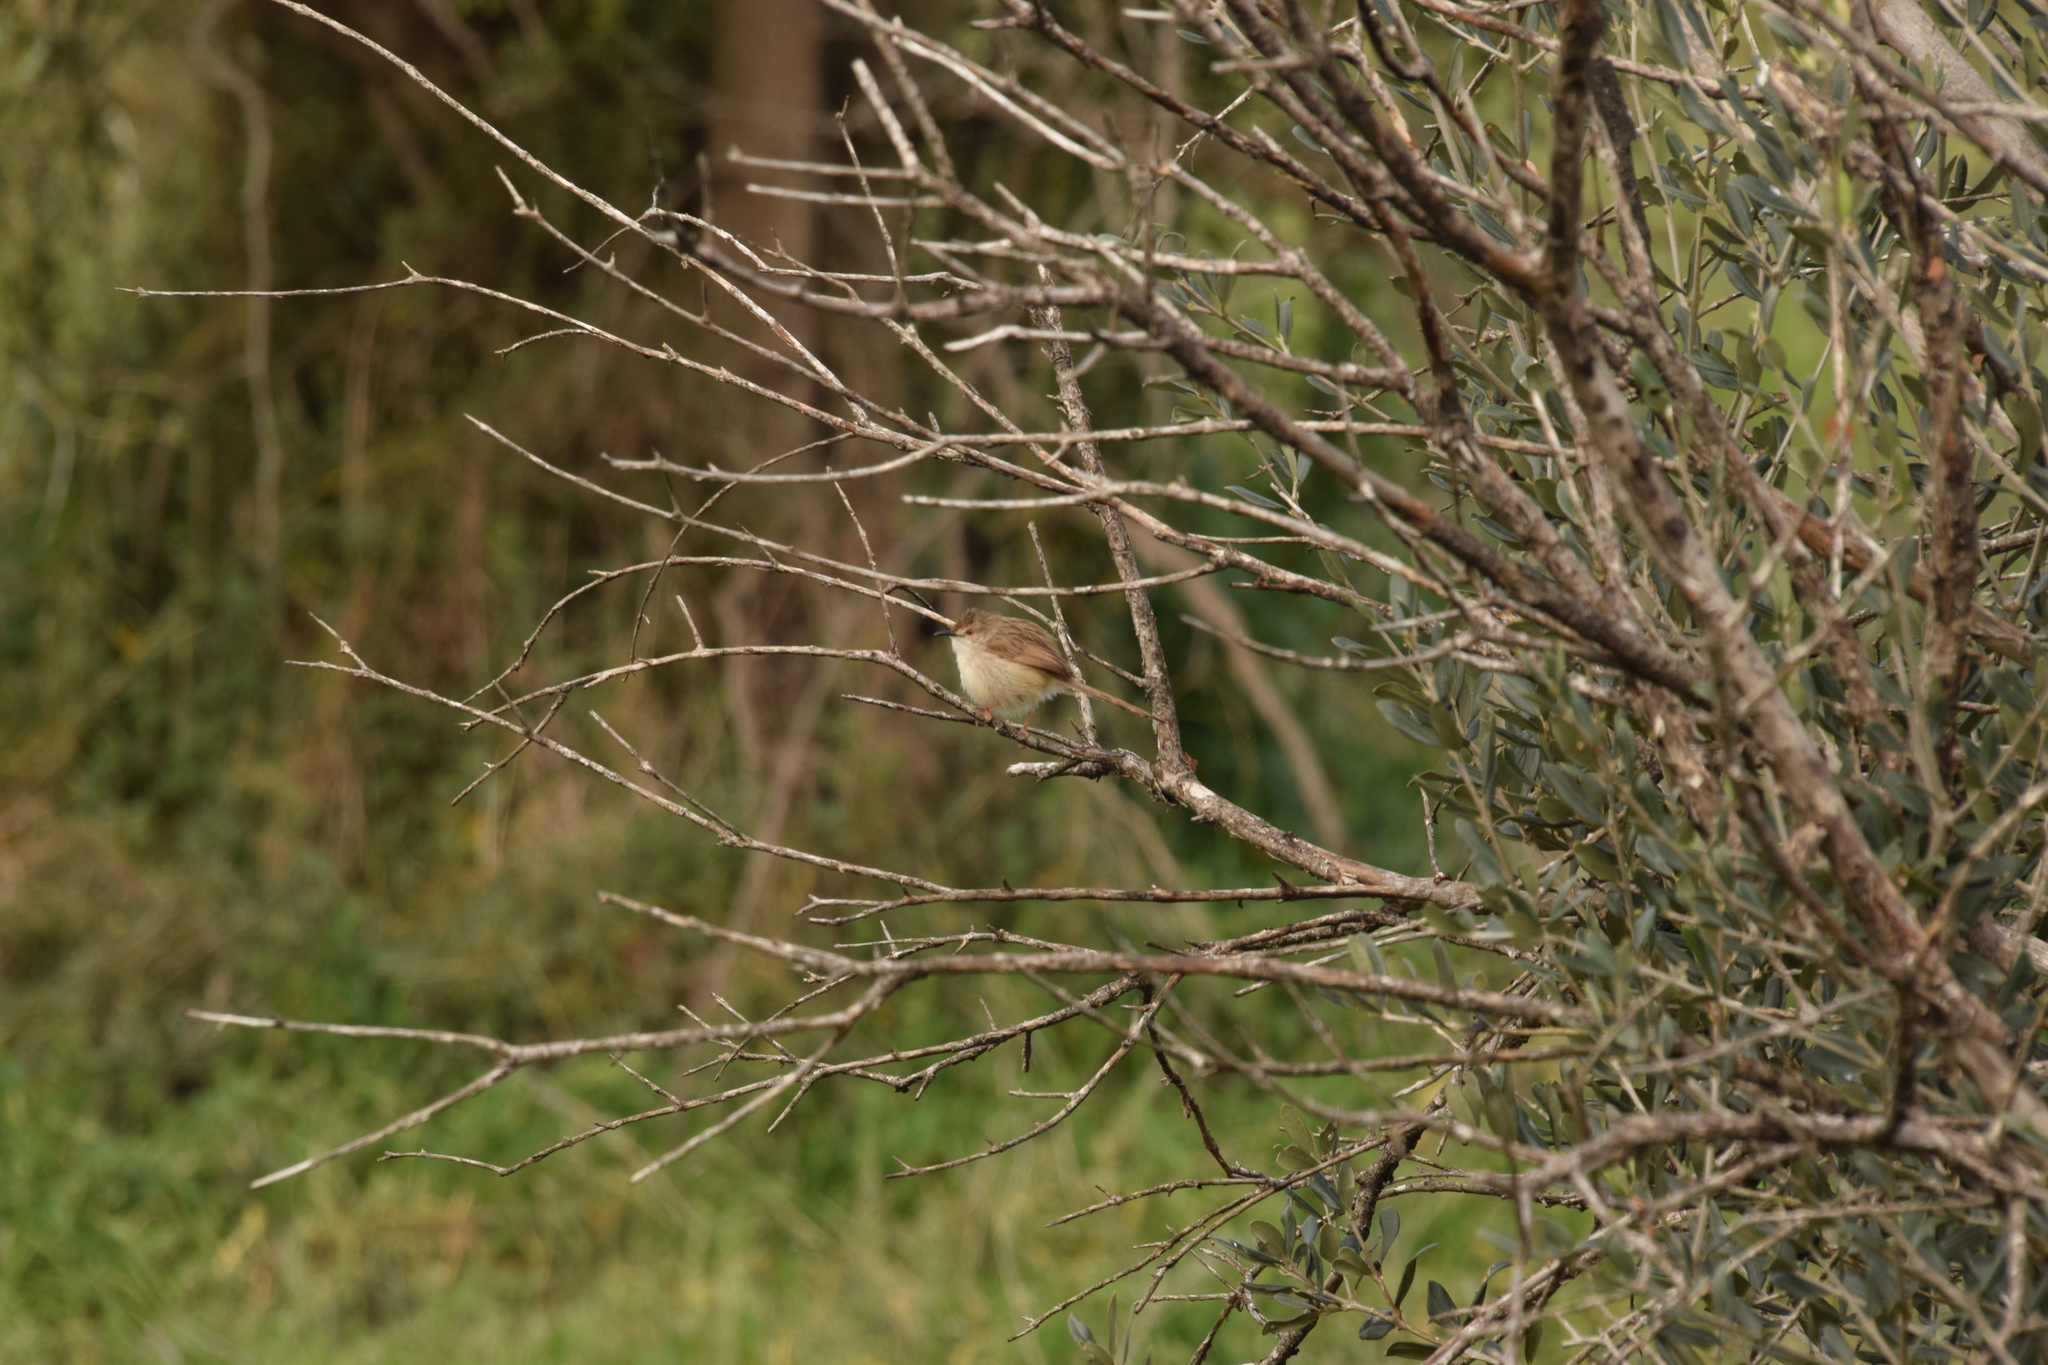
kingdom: Animalia
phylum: Chordata
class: Aves
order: Passeriformes
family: Cisticolidae
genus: Prinia
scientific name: Prinia gracilis
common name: Graceful prinia
